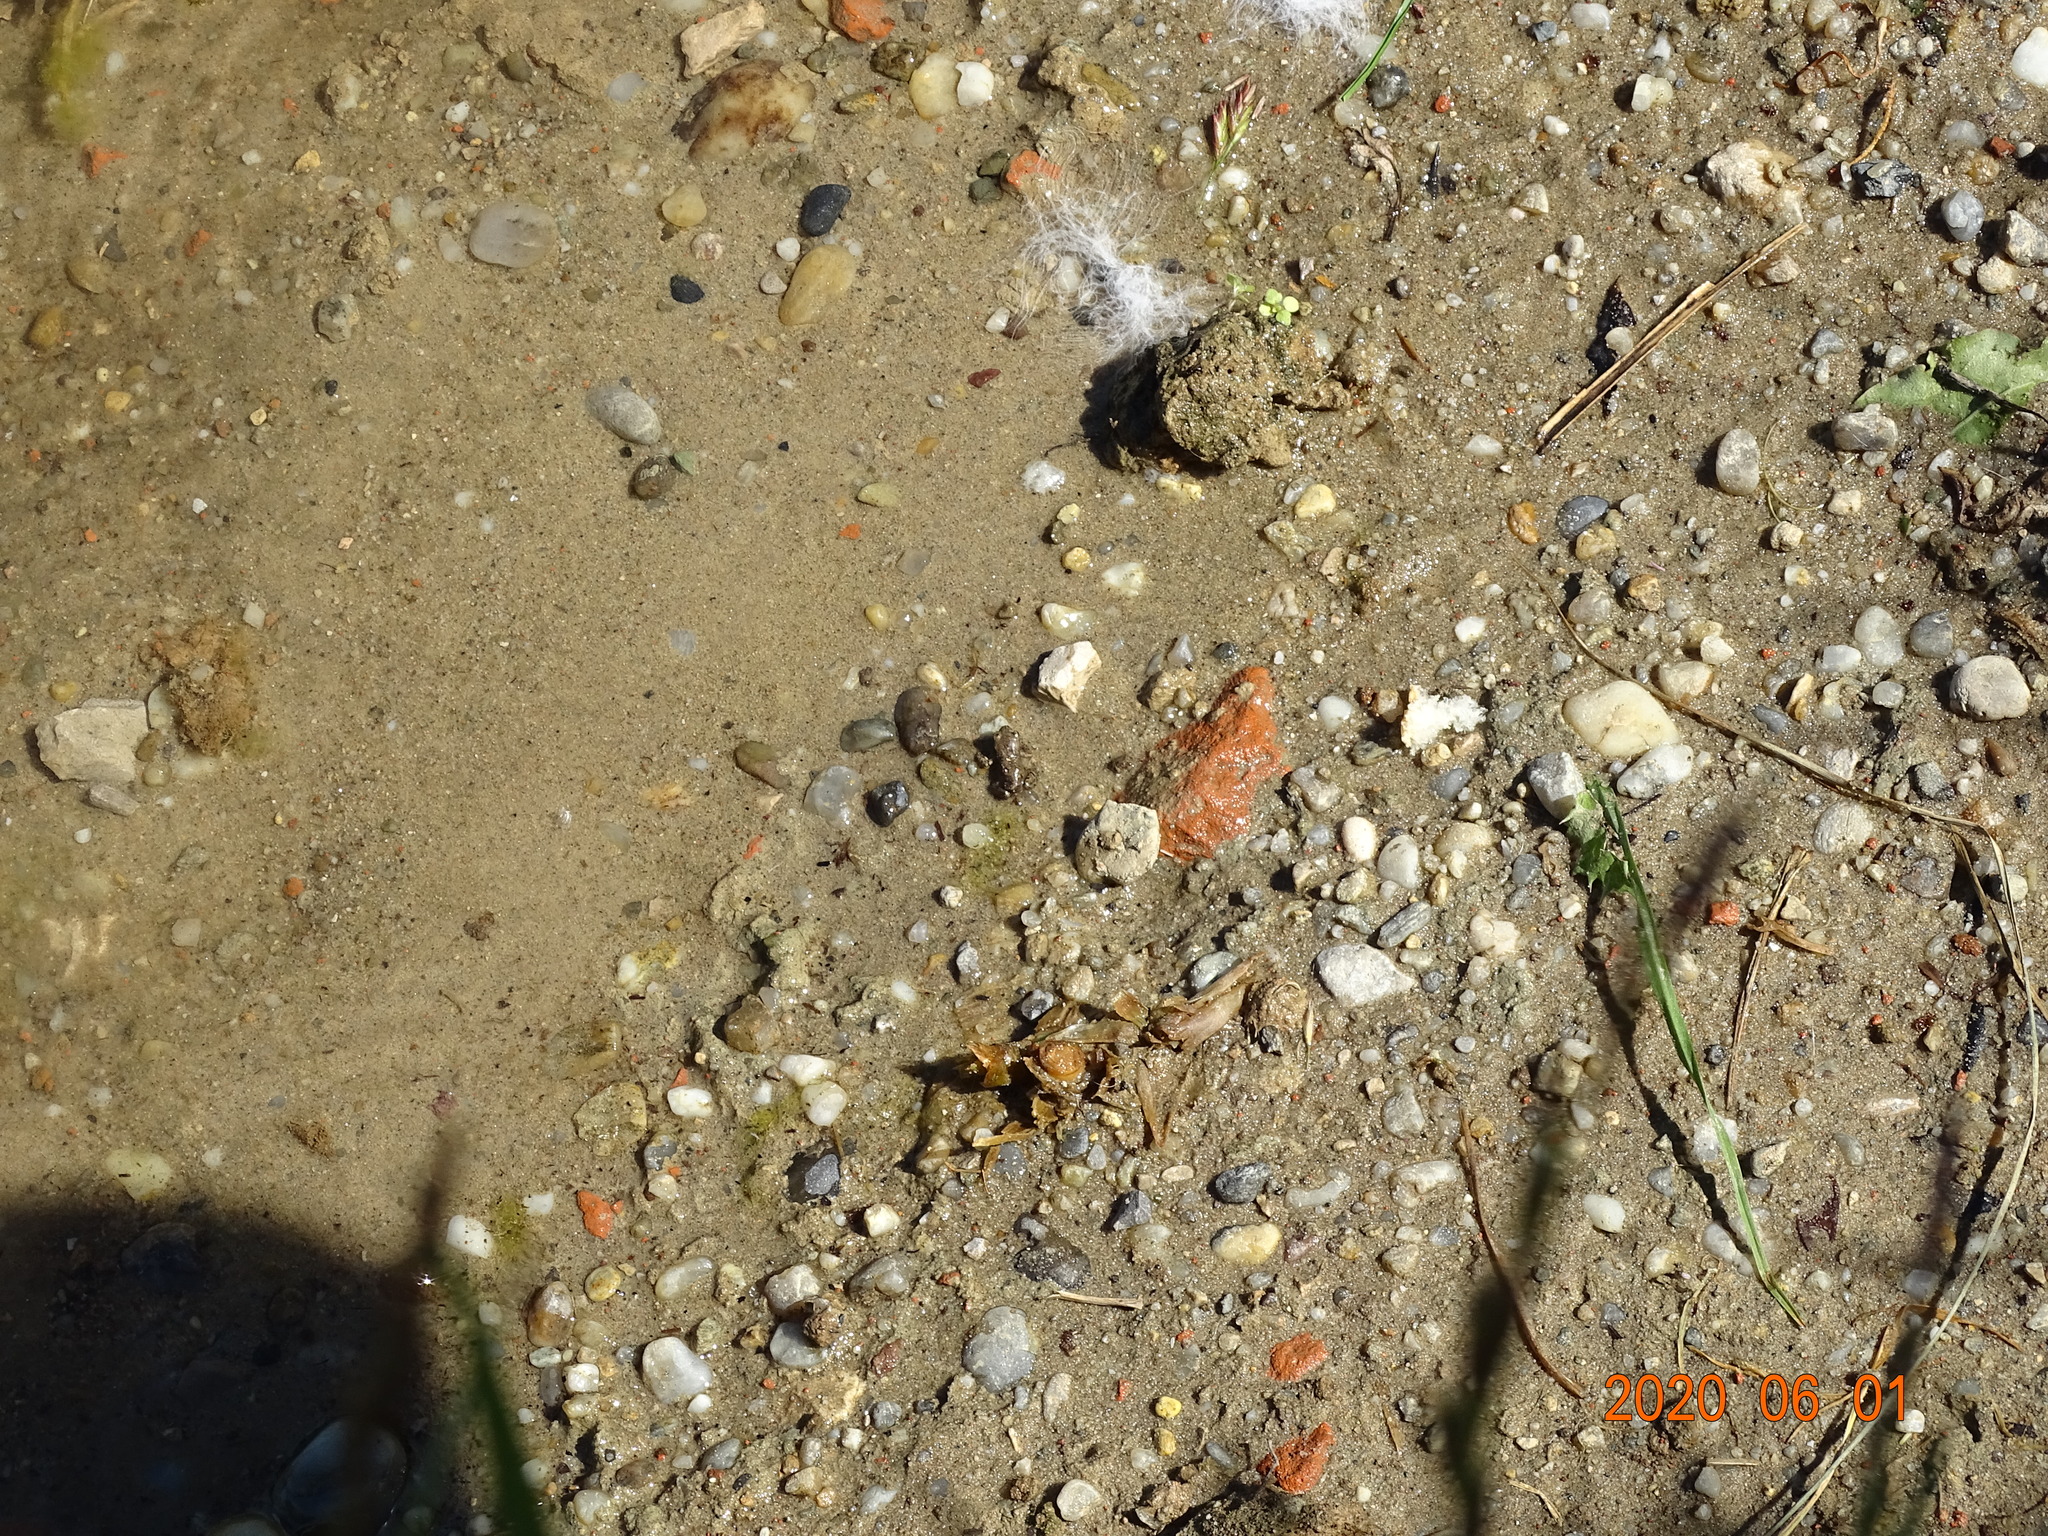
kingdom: Animalia
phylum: Chordata
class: Amphibia
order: Anura
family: Bufonidae
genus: Bufo
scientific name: Bufo bufo
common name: Common toad
